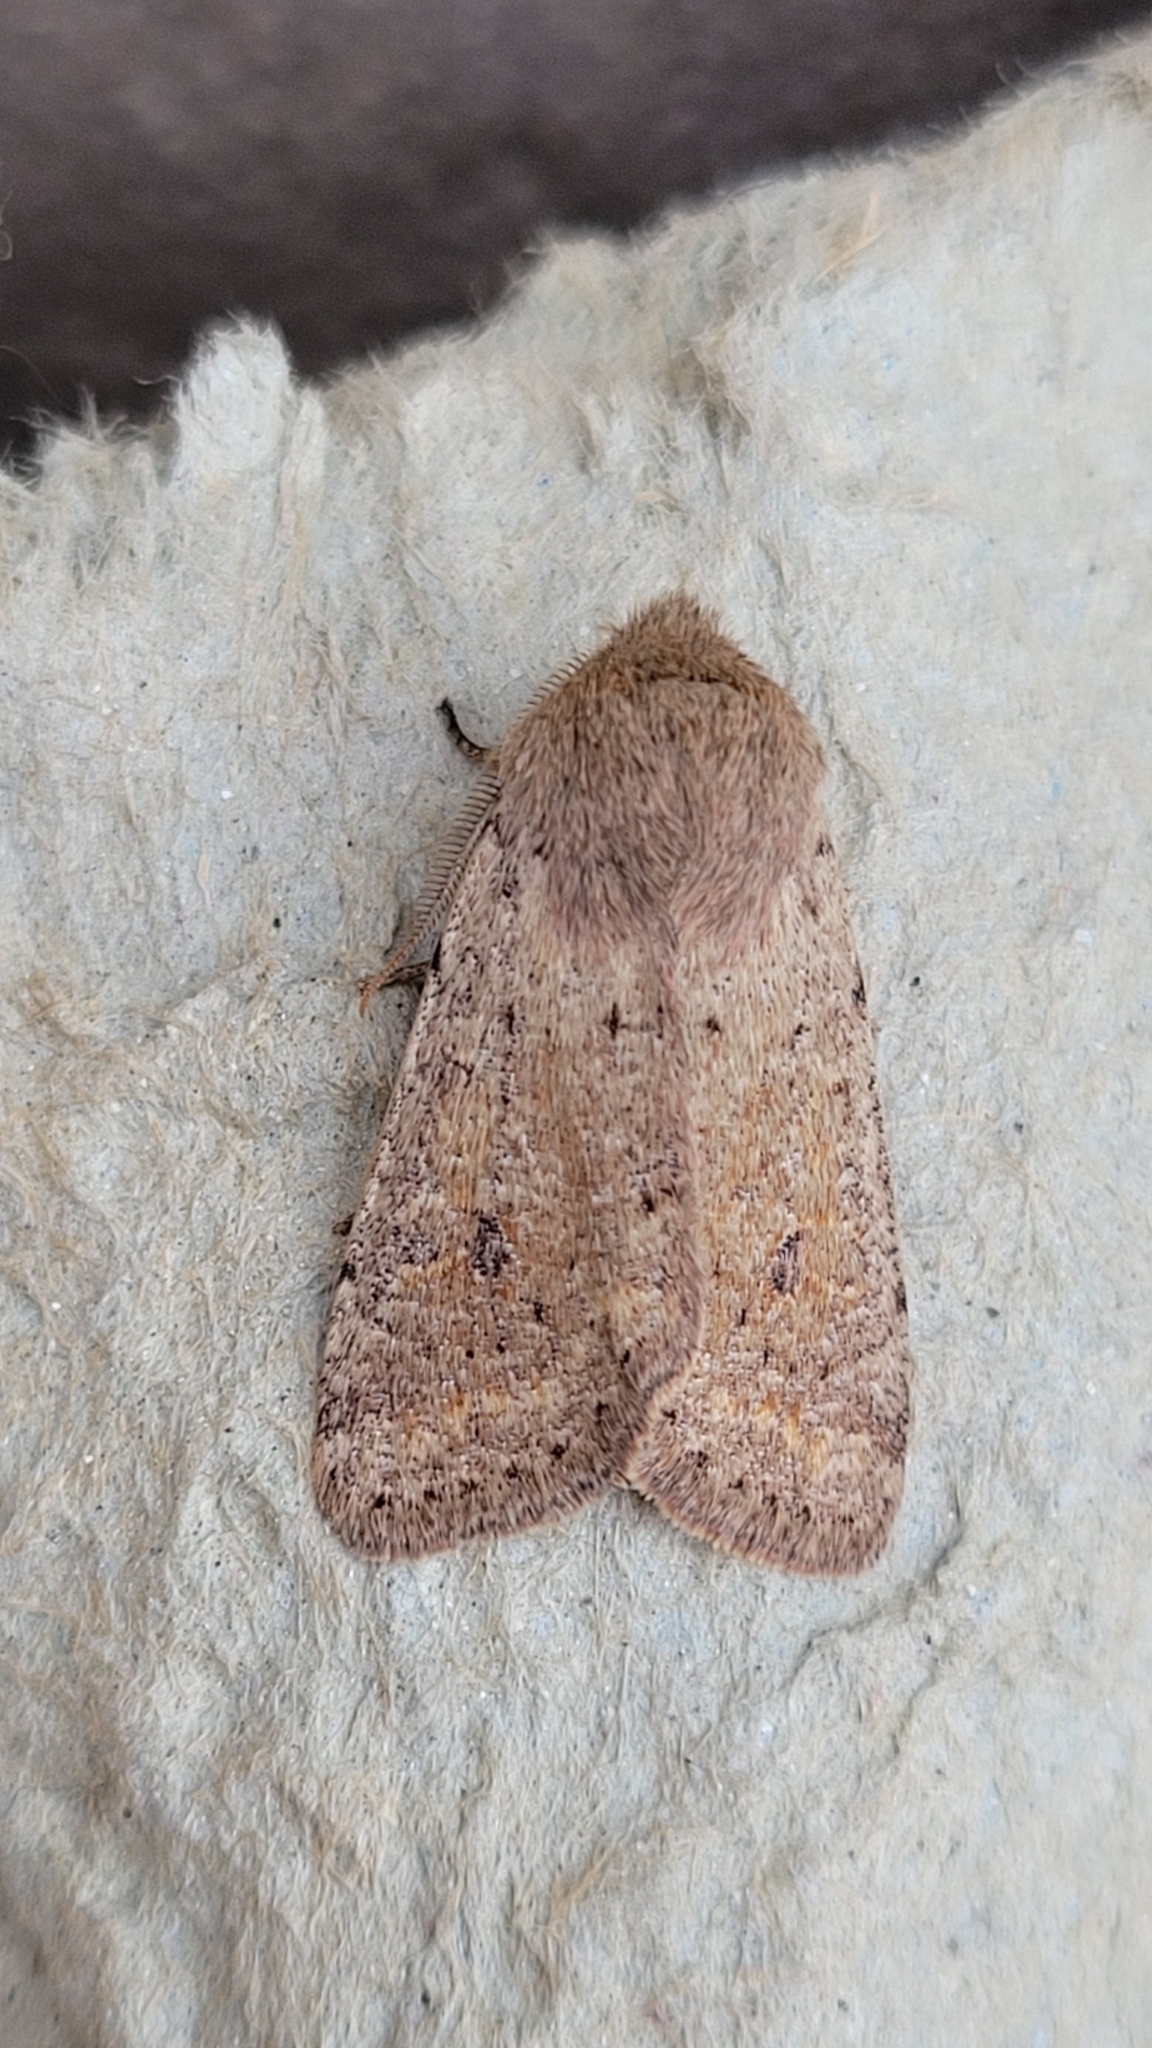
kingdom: Animalia
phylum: Arthropoda
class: Insecta
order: Lepidoptera
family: Noctuidae
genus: Orthosia
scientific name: Orthosia cruda
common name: Small quaker
